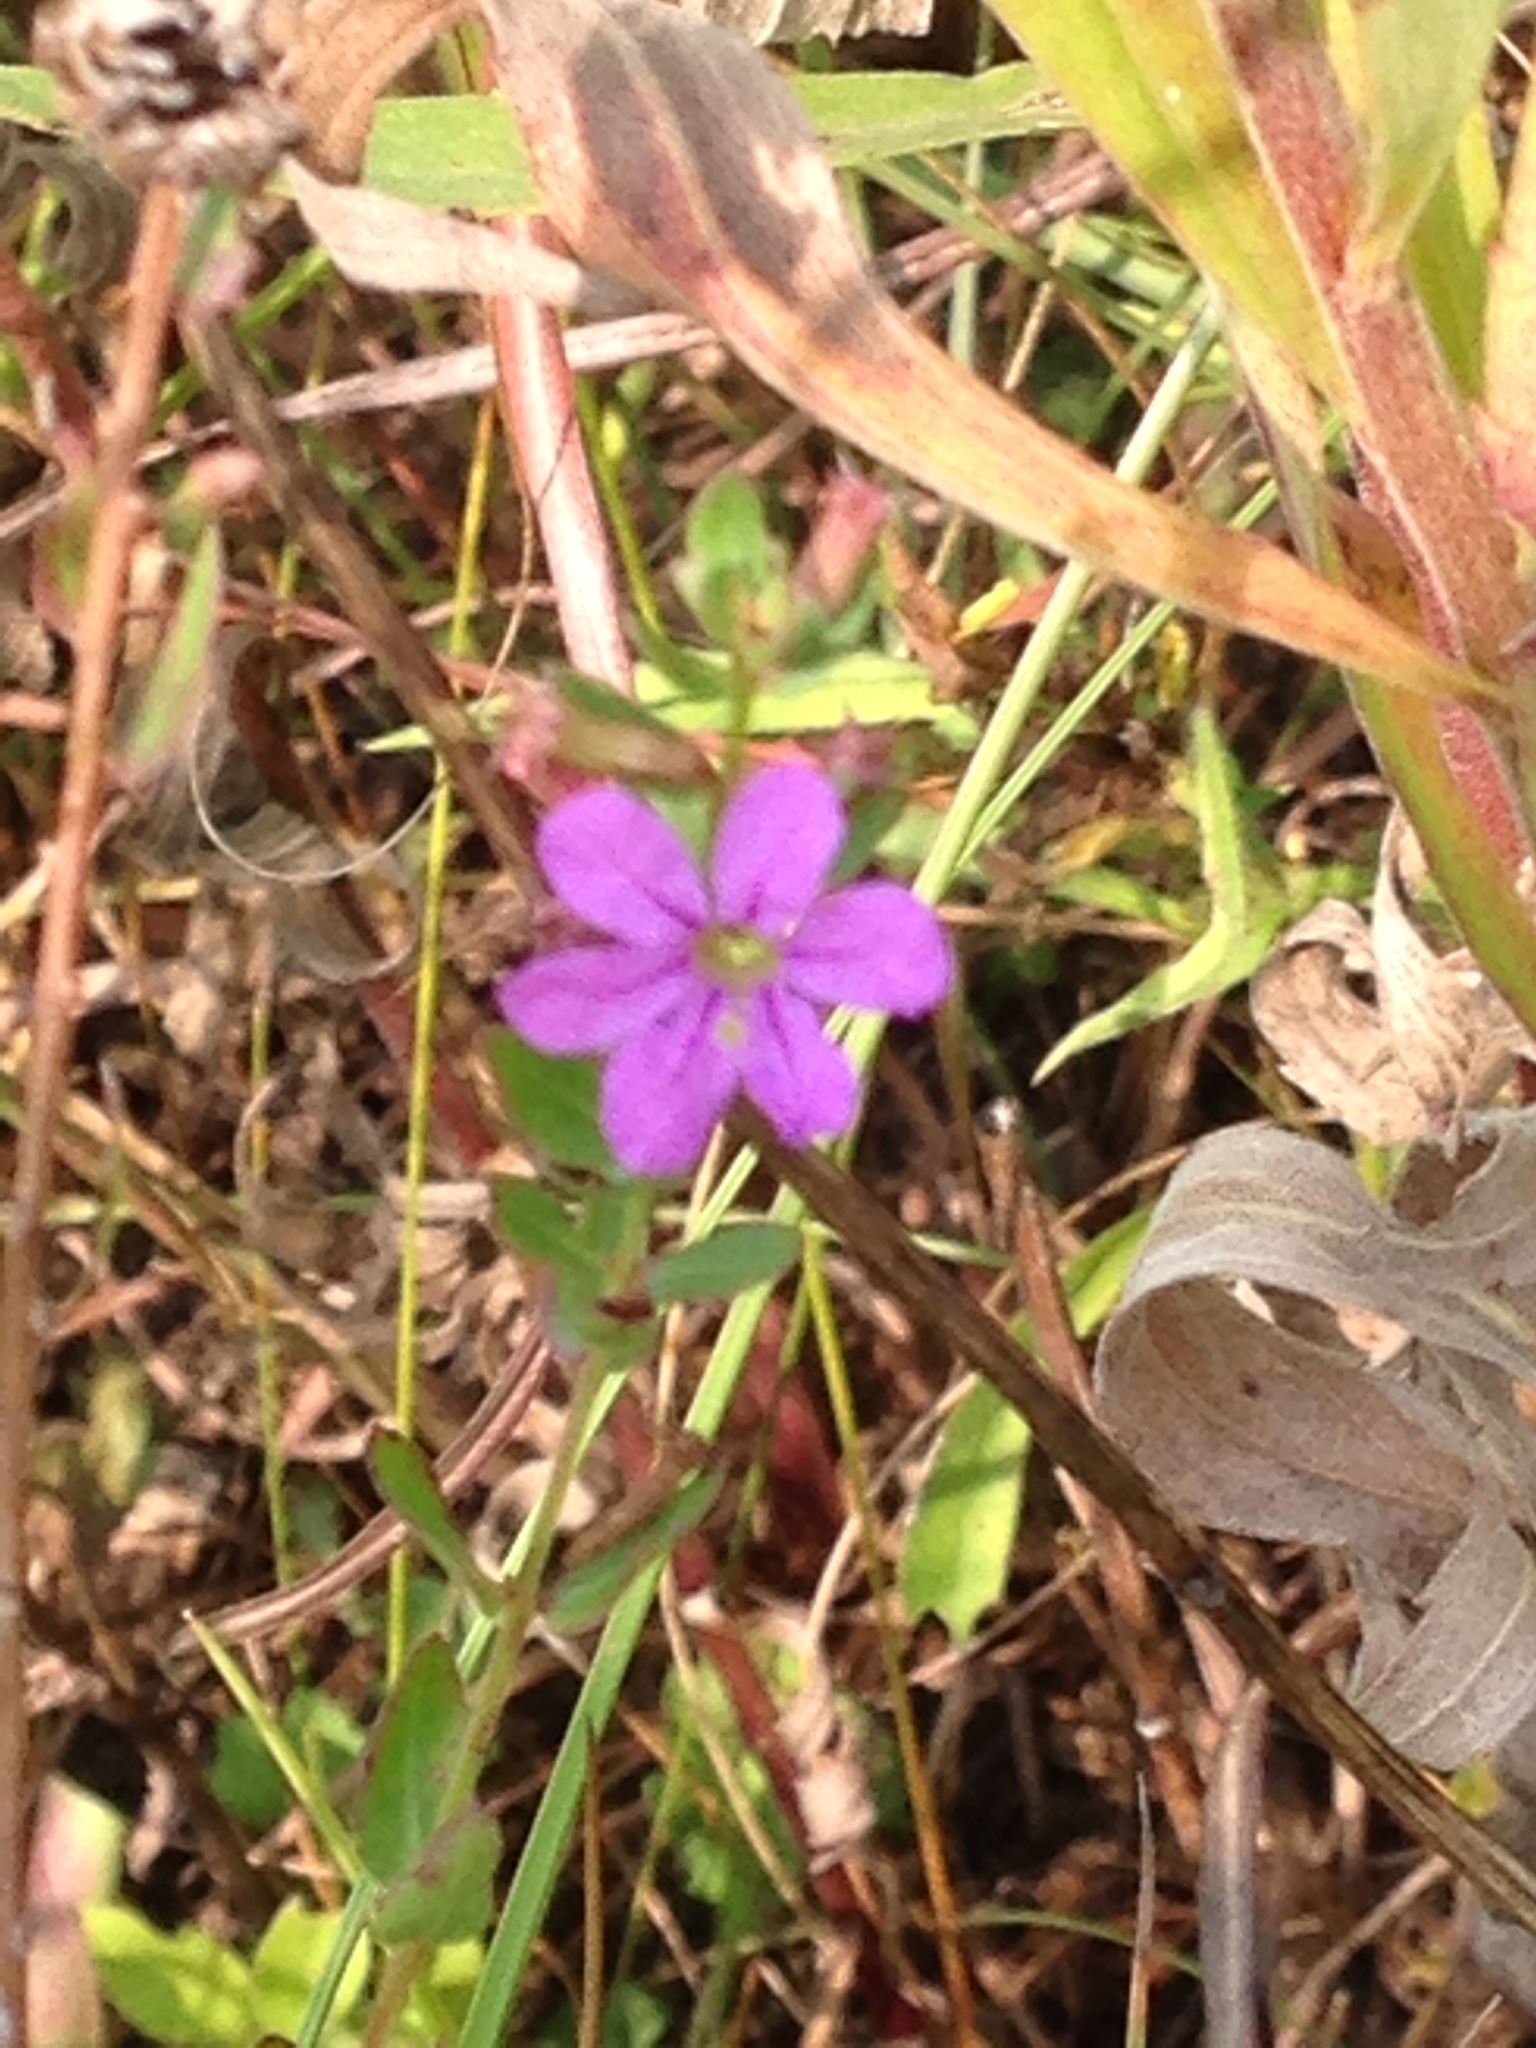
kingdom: Plantae
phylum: Tracheophyta
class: Magnoliopsida
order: Myrtales
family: Lythraceae
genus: Lythrum
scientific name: Lythrum alatum
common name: Winged loosestrife
